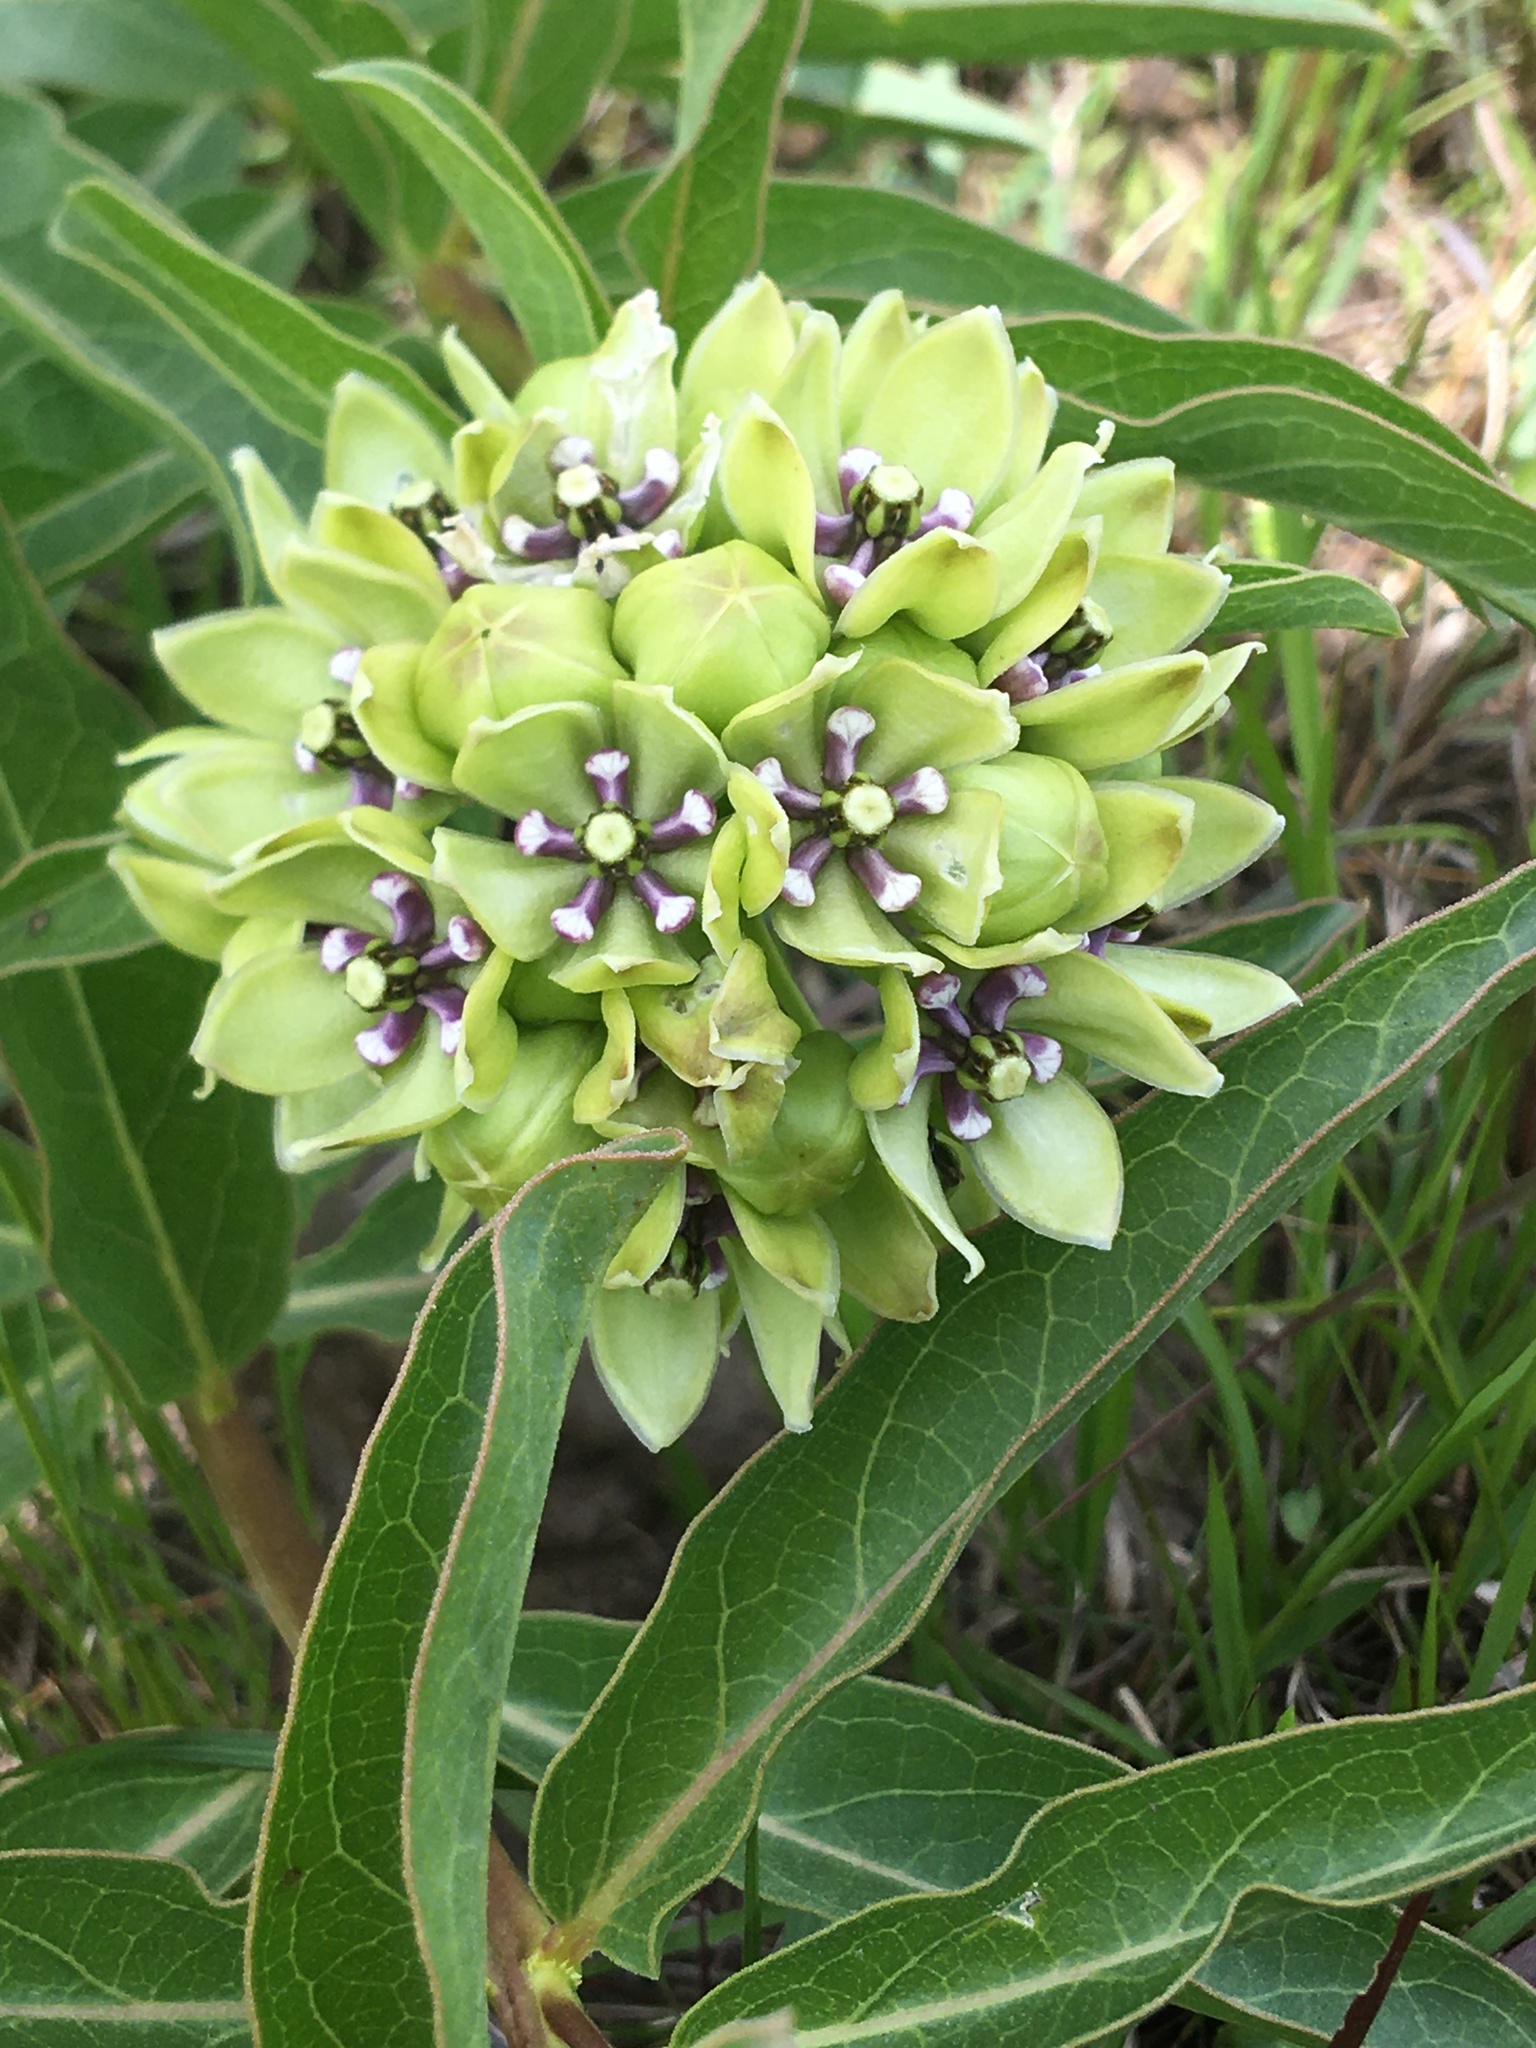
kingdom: Plantae
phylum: Tracheophyta
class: Magnoliopsida
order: Gentianales
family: Apocynaceae
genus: Asclepias
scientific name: Asclepias viridis
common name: Antelope-horns
